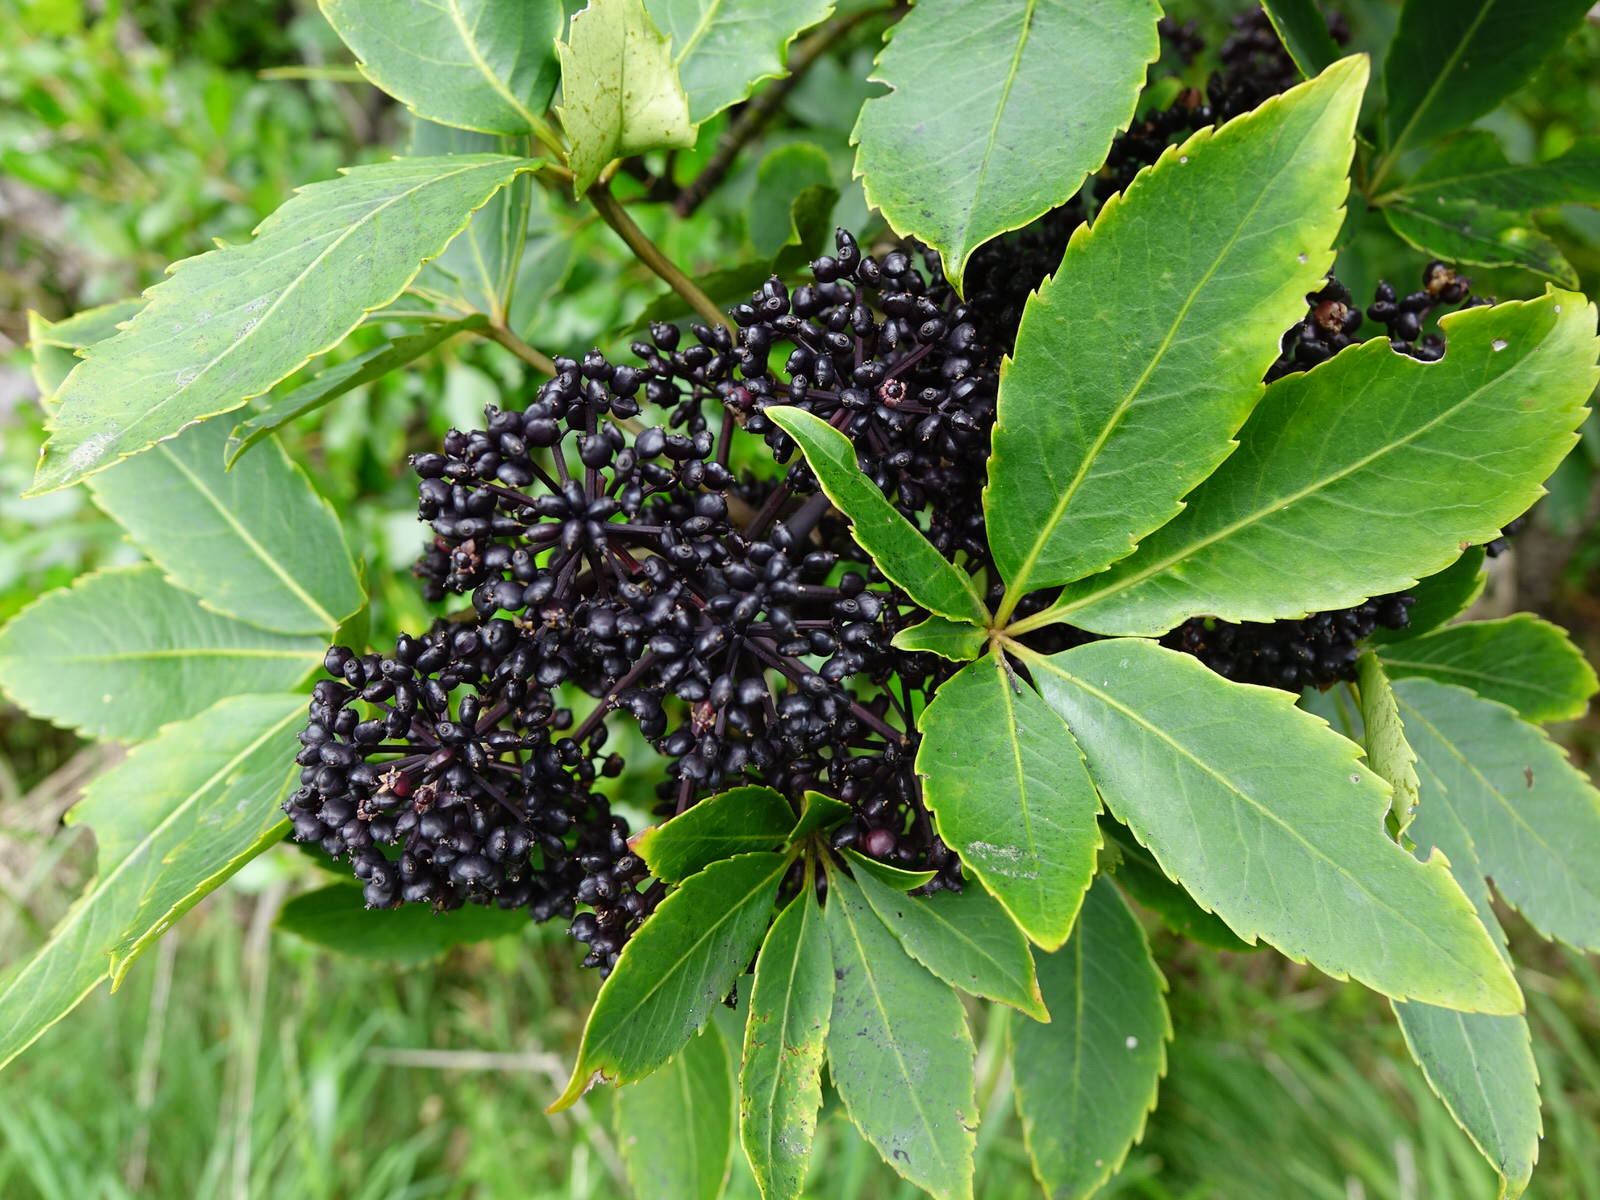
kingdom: Plantae
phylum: Tracheophyta
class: Magnoliopsida
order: Apiales
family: Araliaceae
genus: Neopanax
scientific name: Neopanax arboreus
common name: Five-fingers
